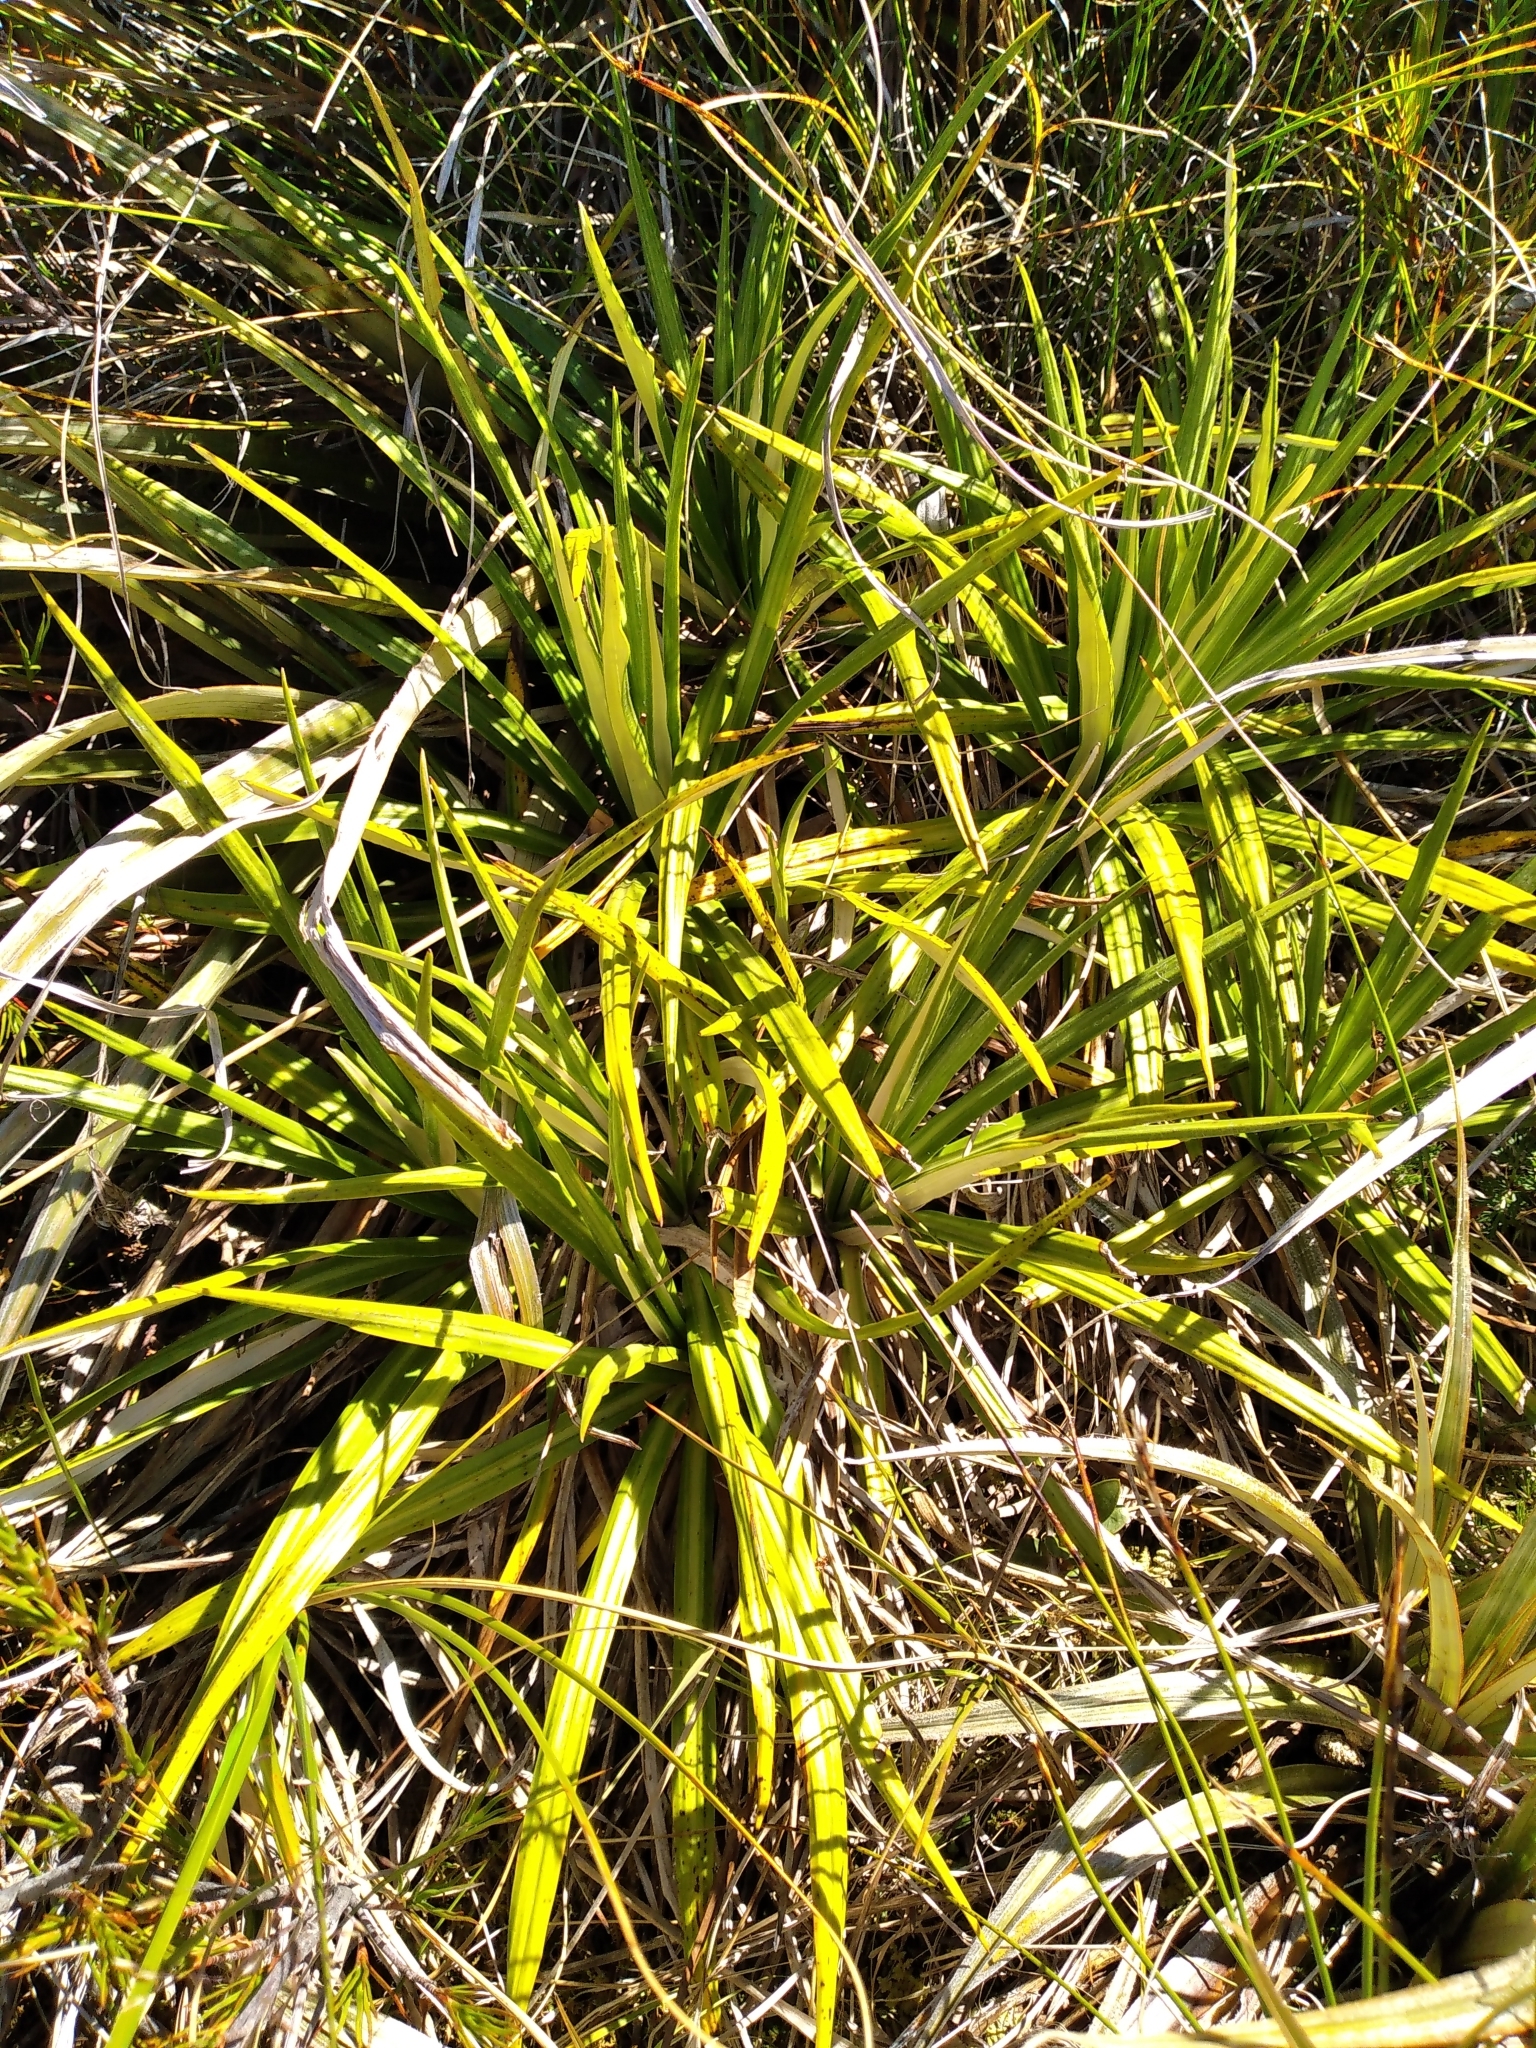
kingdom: Plantae
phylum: Tracheophyta
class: Magnoliopsida
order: Asterales
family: Asteraceae
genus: Celmisia
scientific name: Celmisia petriei
